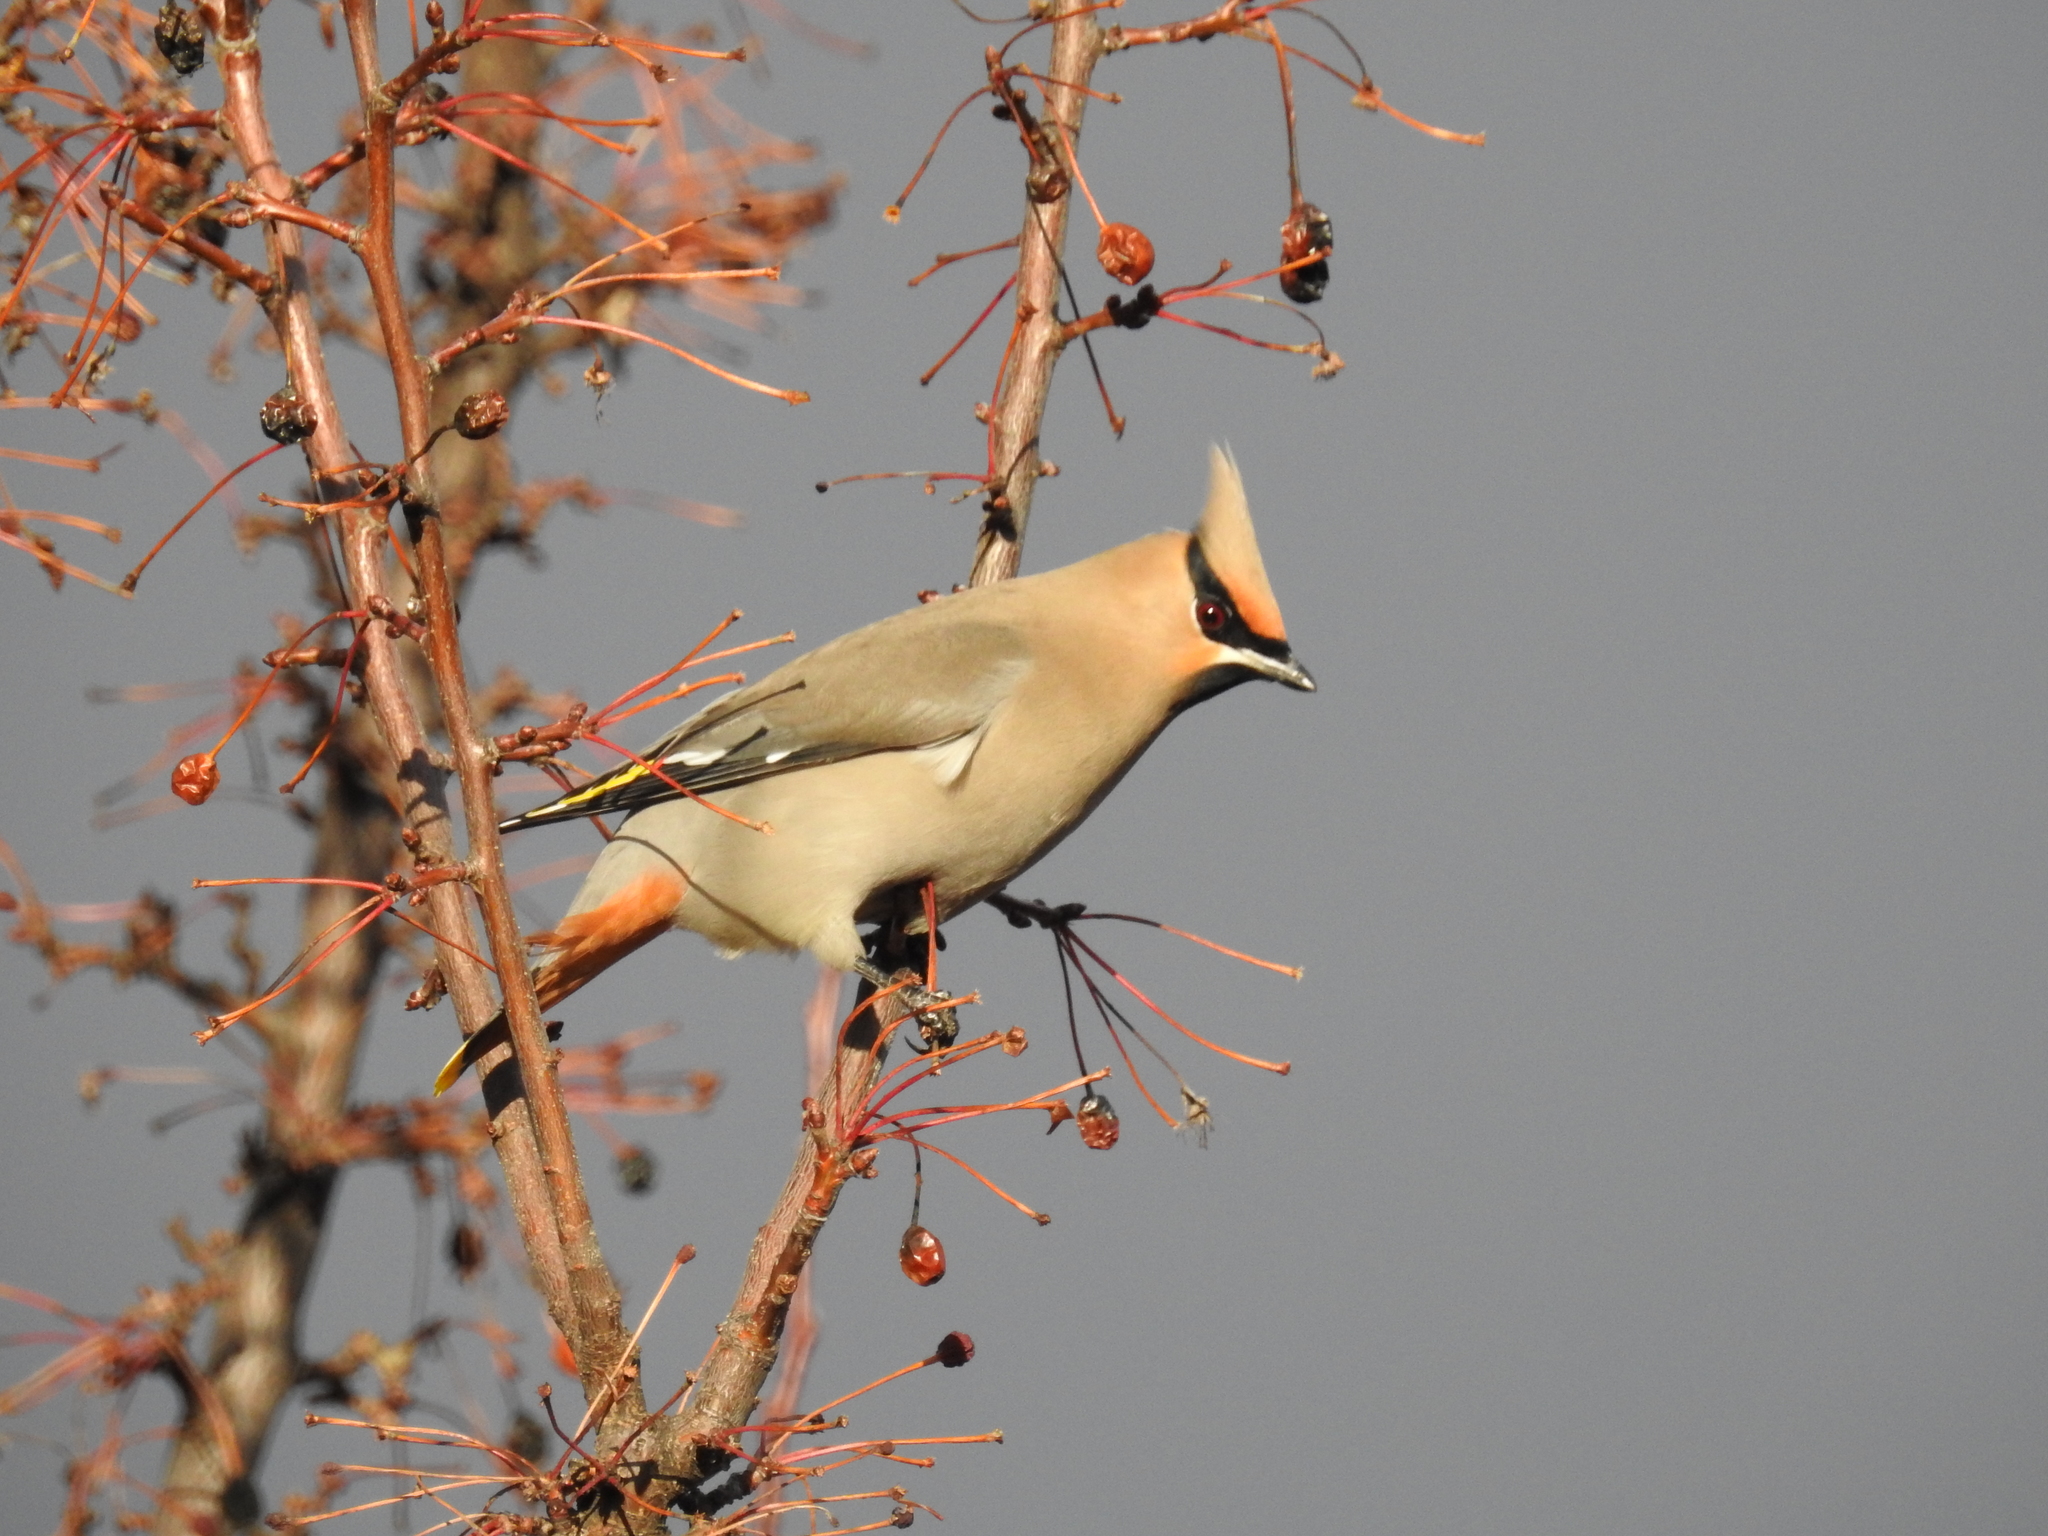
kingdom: Animalia
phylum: Chordata
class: Aves
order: Passeriformes
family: Bombycillidae
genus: Bombycilla
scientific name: Bombycilla garrulus
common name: Bohemian waxwing
